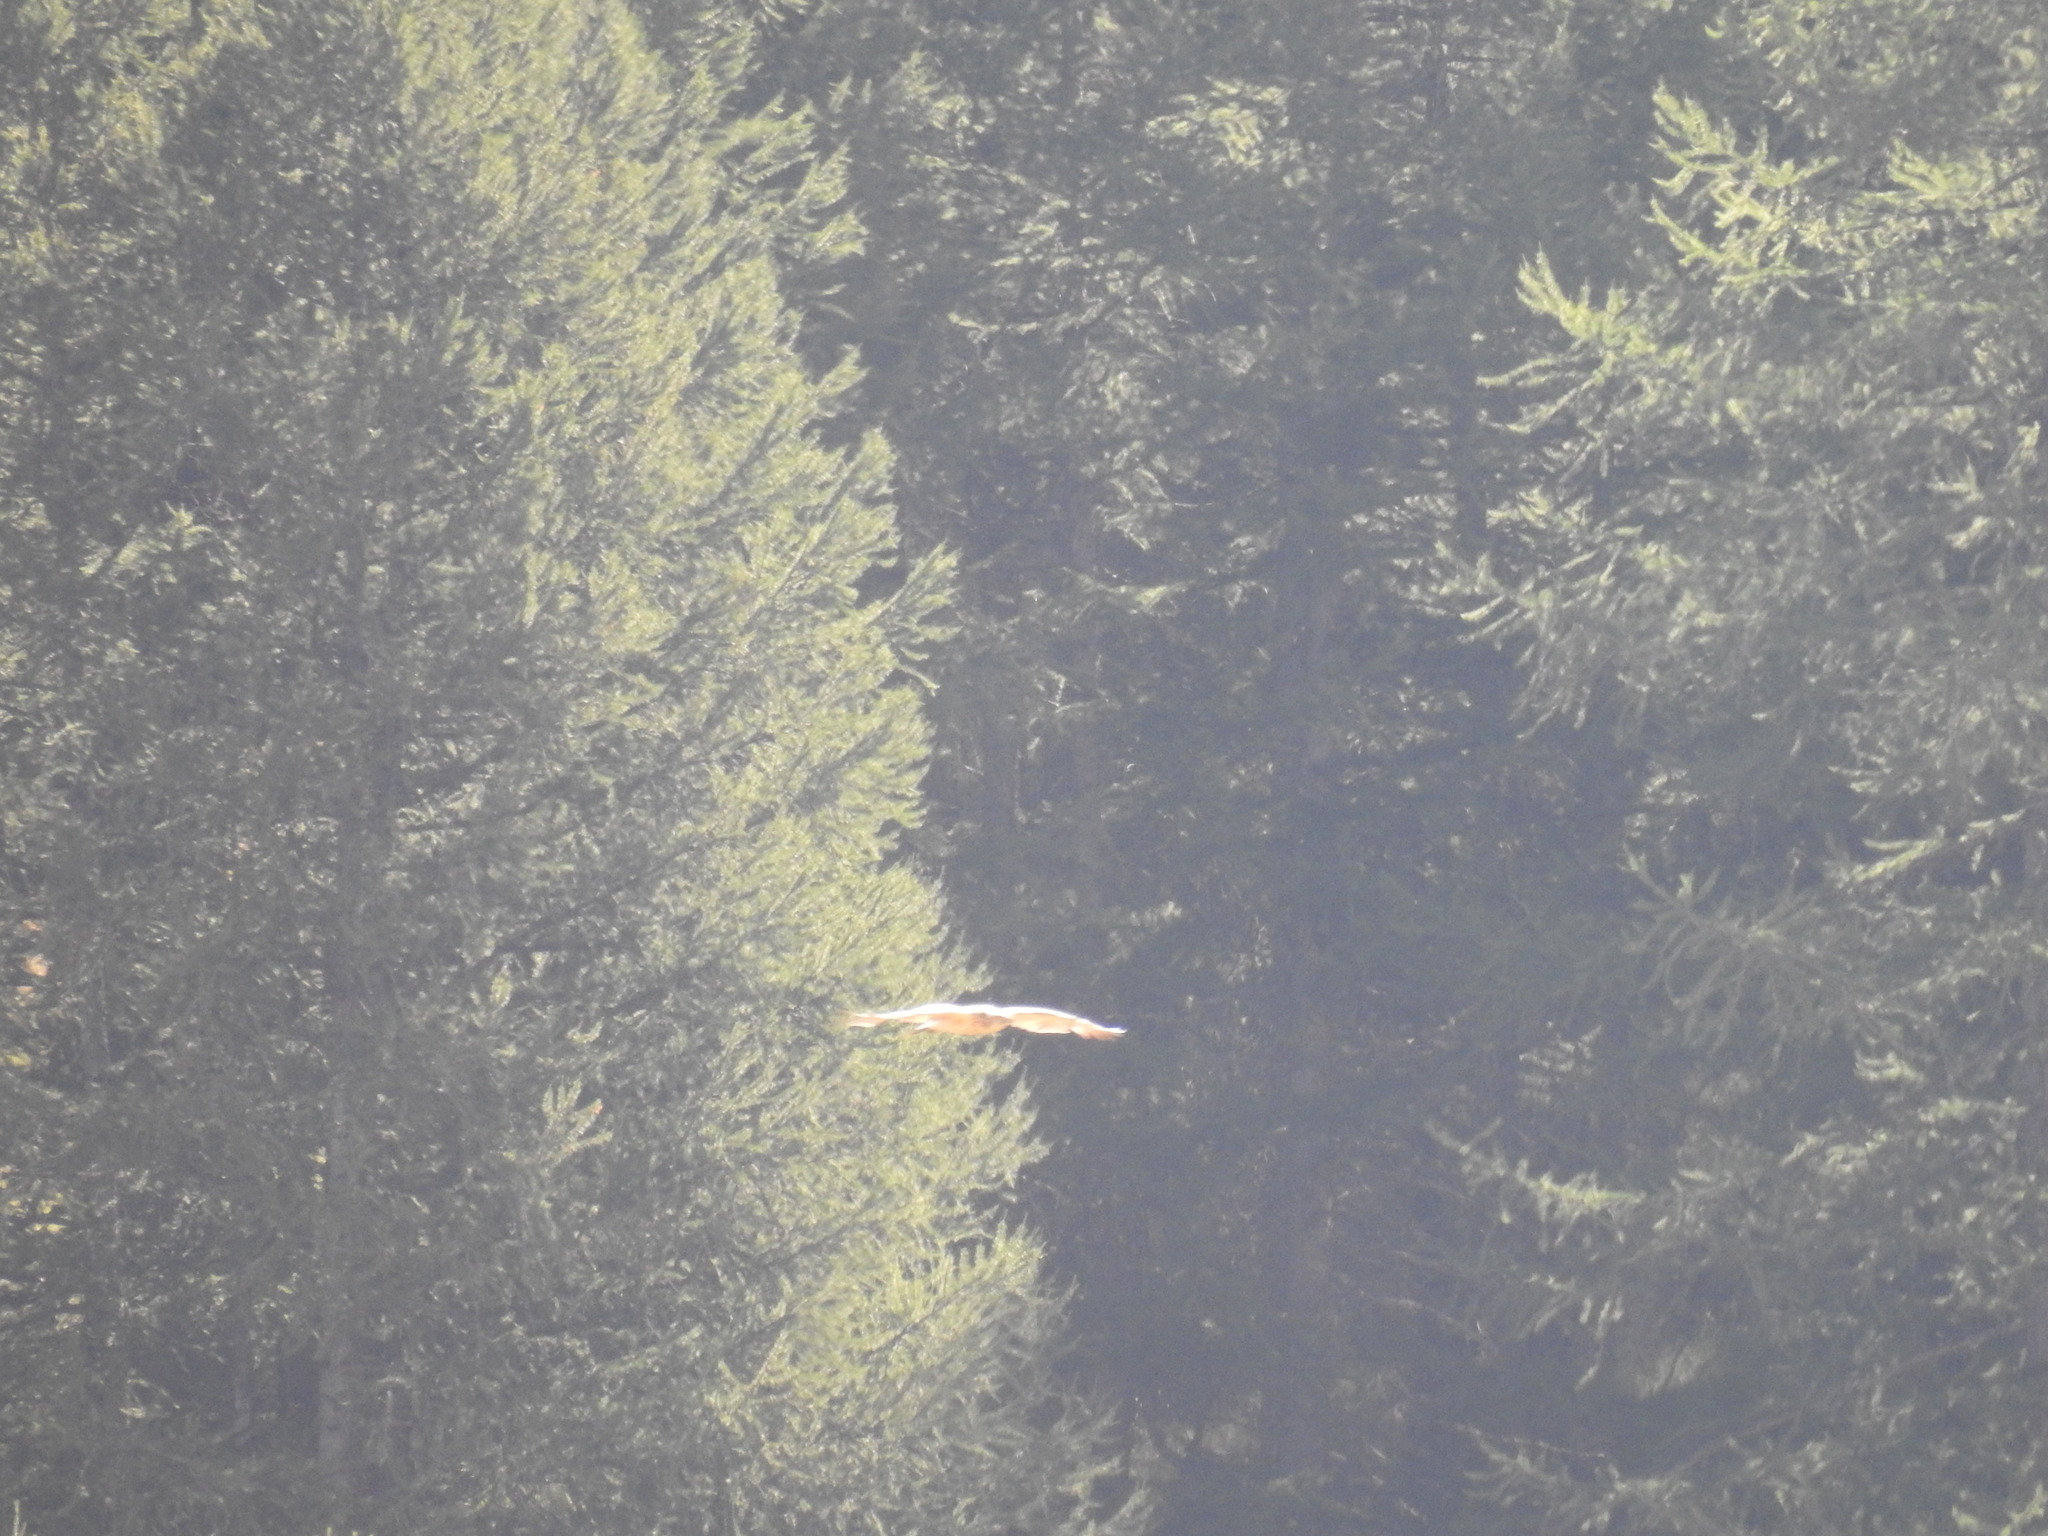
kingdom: Animalia
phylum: Chordata
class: Aves
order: Accipitriformes
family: Accipitridae
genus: Circaetus
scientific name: Circaetus gallicus
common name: Short-toed snake eagle
